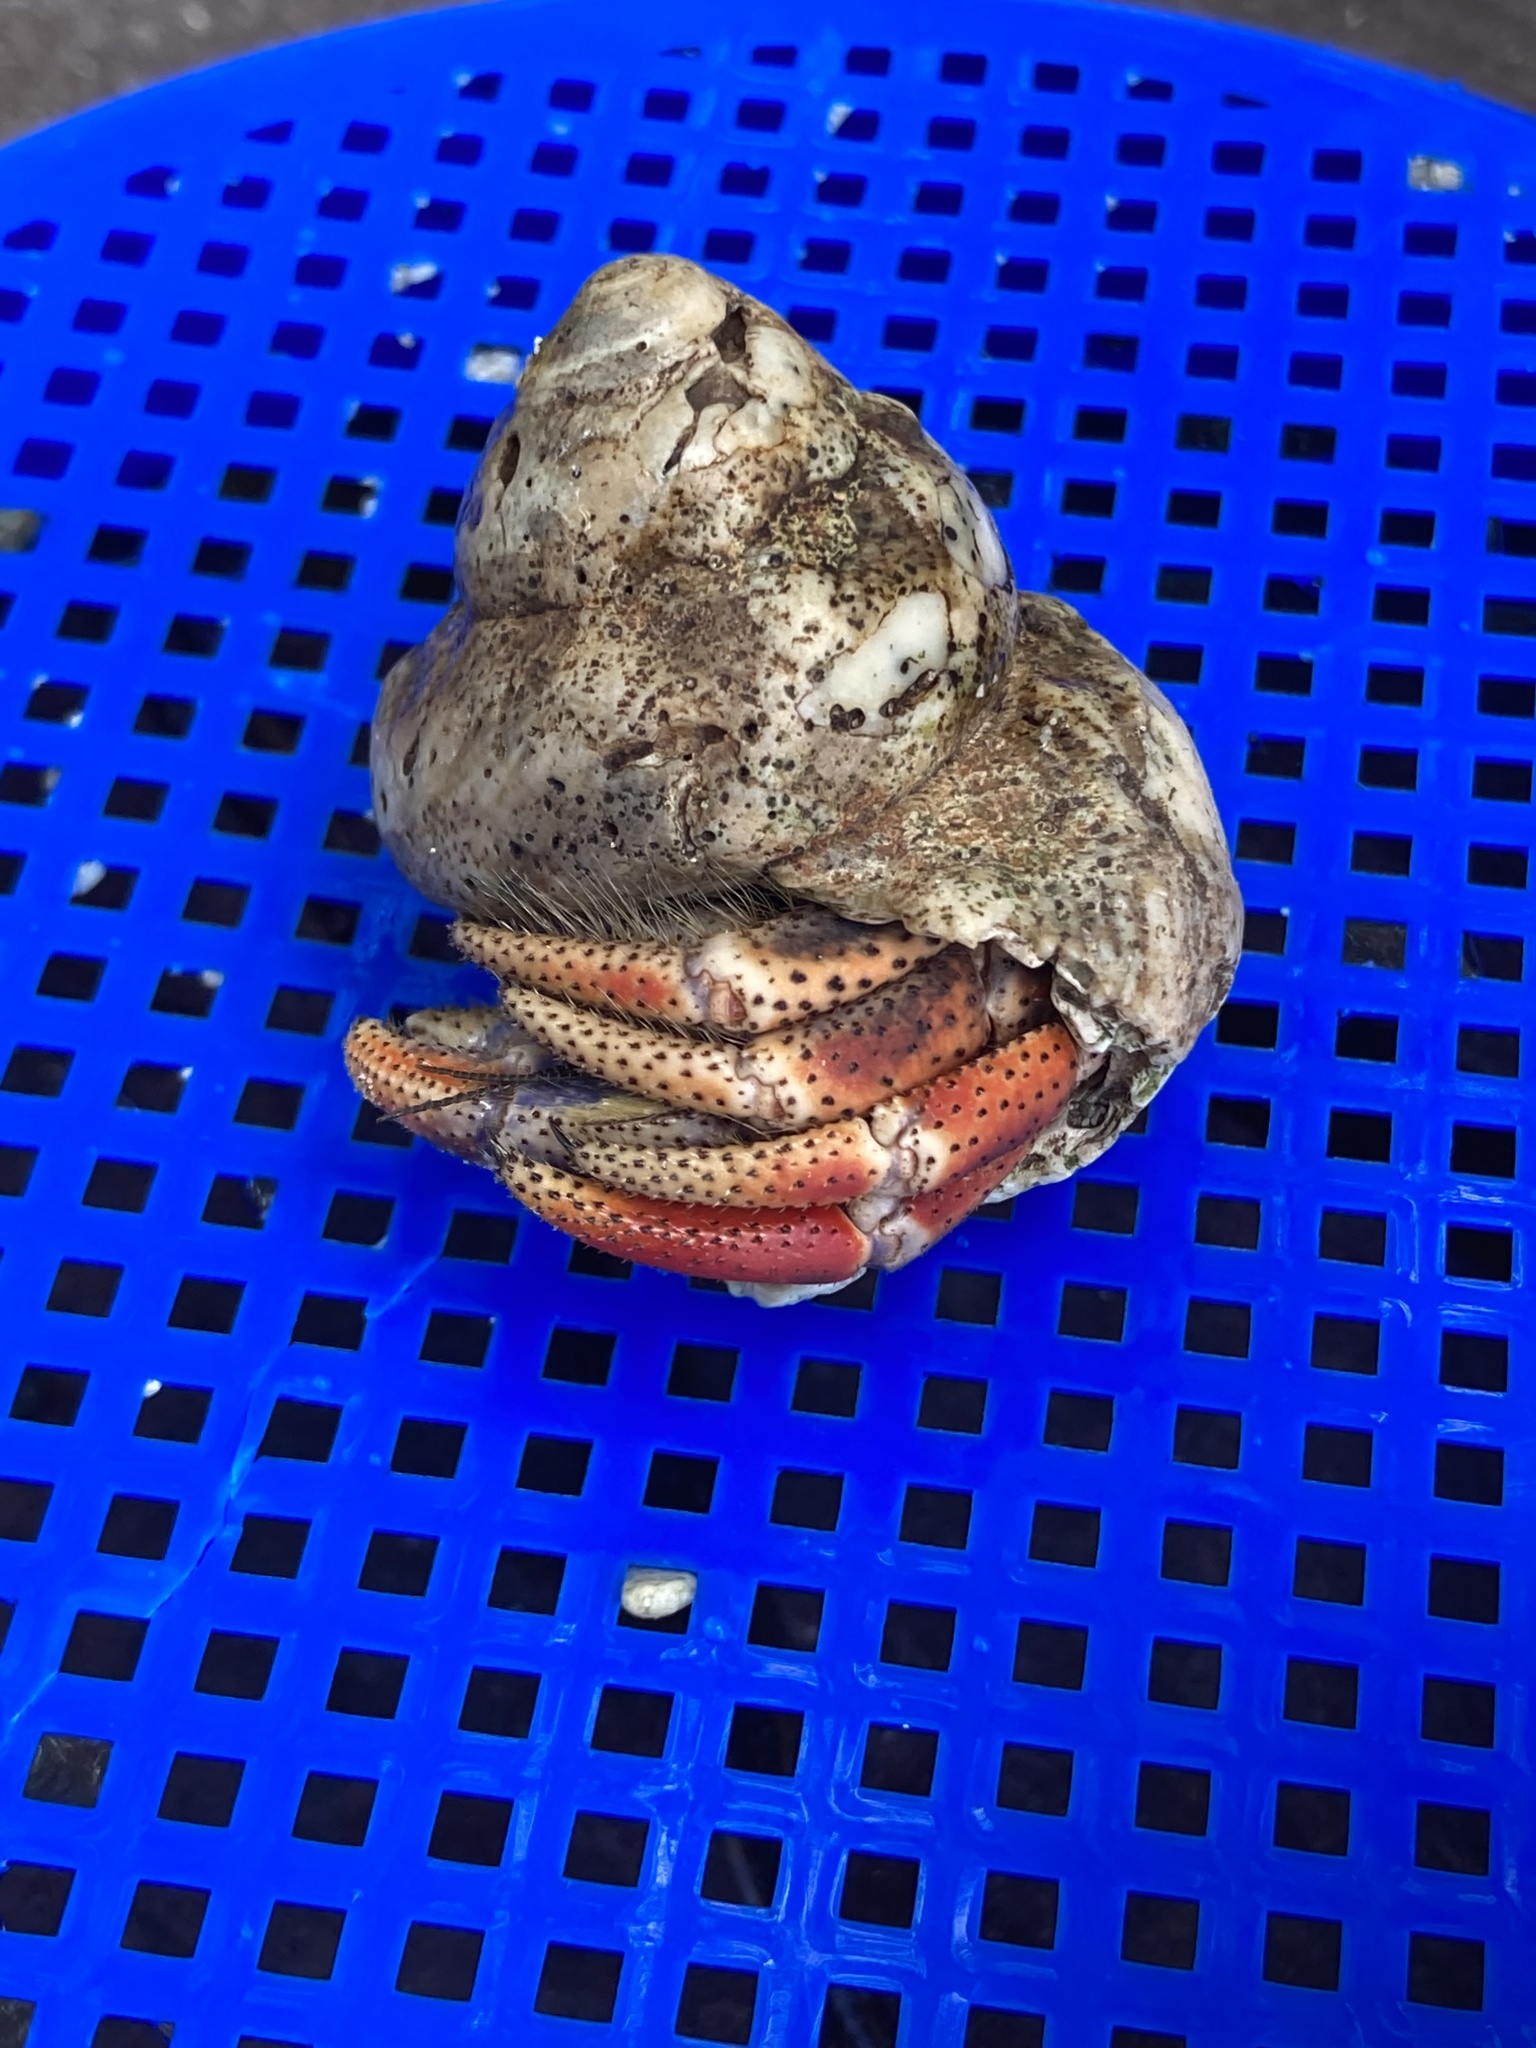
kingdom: Animalia
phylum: Arthropoda
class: Malacostraca
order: Decapoda
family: Coenobitidae
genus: Coenobita
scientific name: Coenobita clypeatus
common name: Caribbean hermit crab
